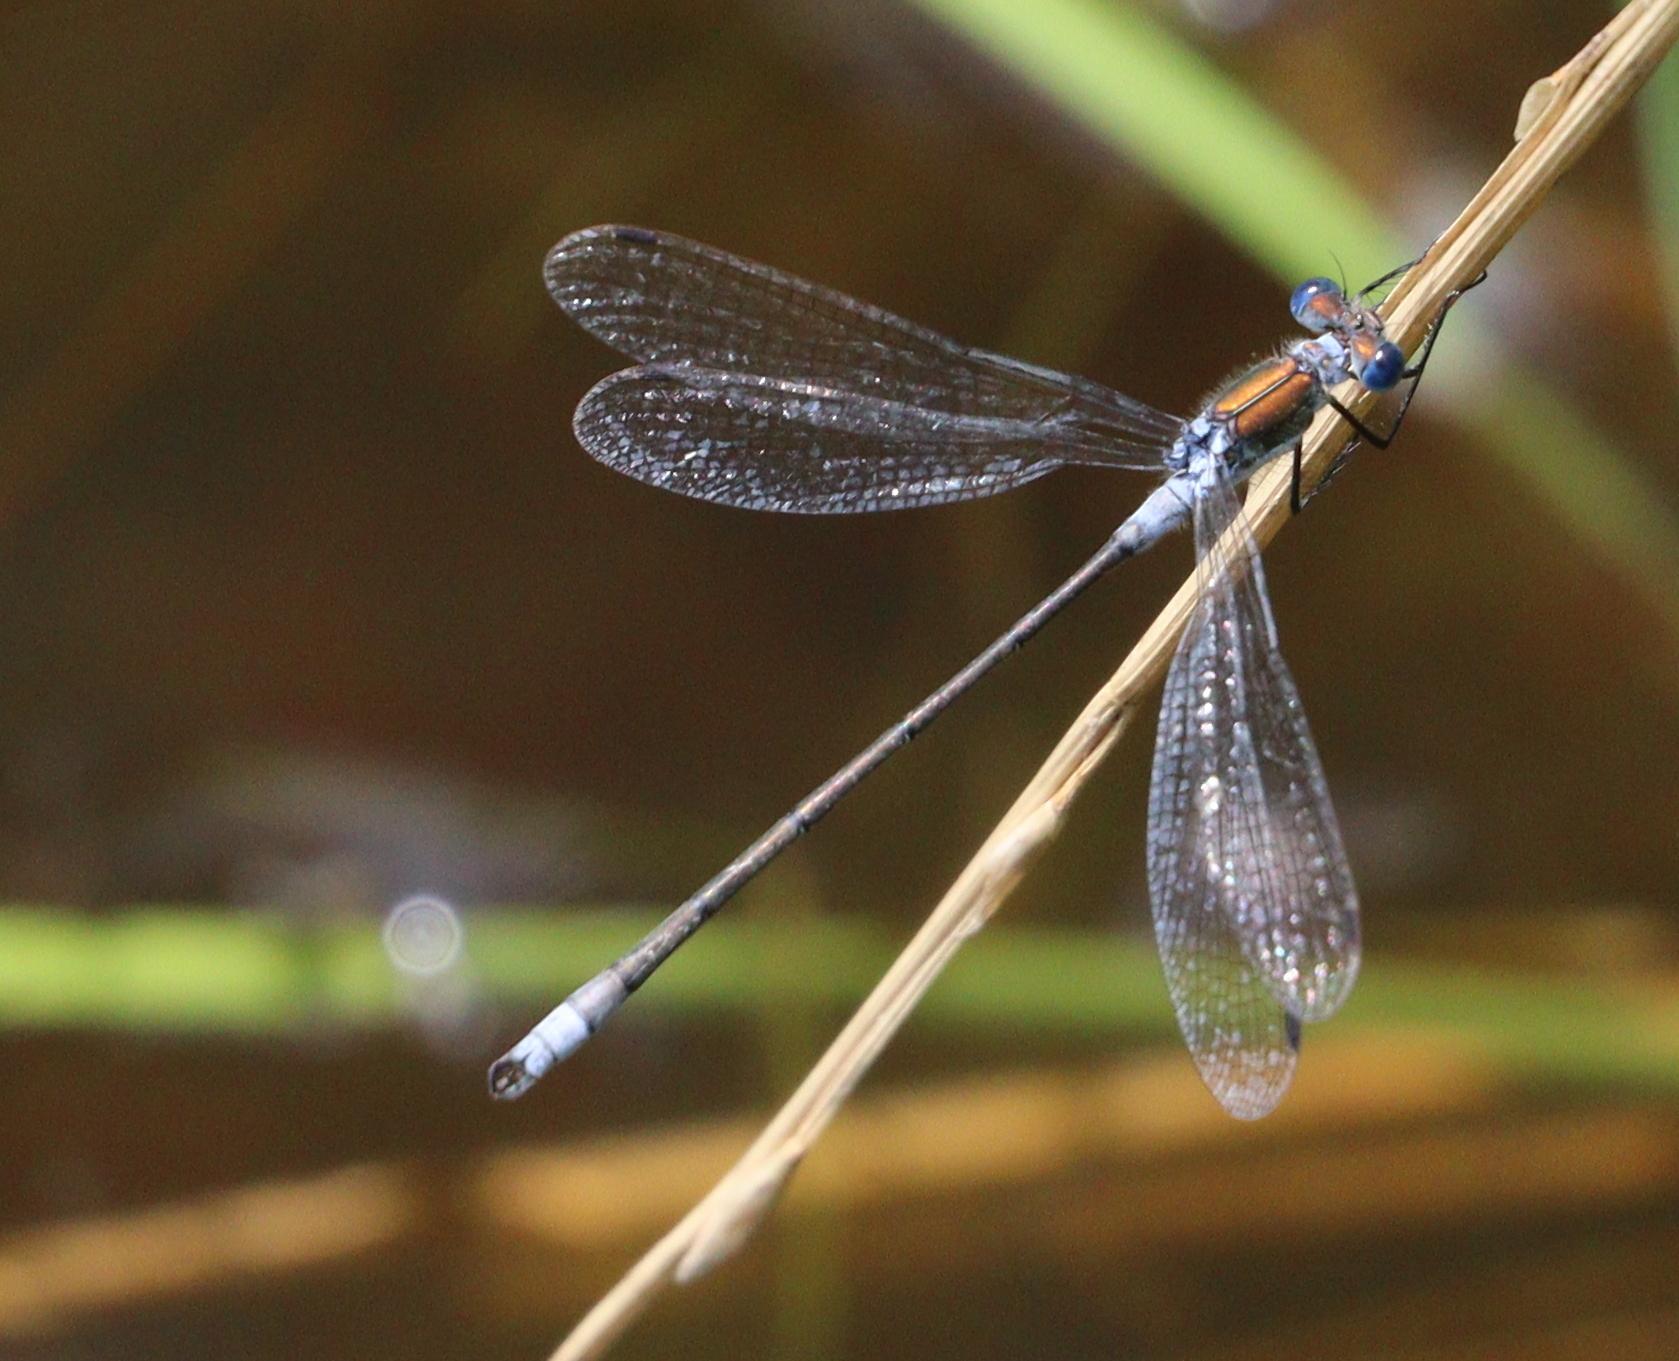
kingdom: Animalia
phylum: Arthropoda
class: Insecta
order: Odonata
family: Lestidae
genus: Lestes
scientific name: Lestes sponsa
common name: Common spreadwing
